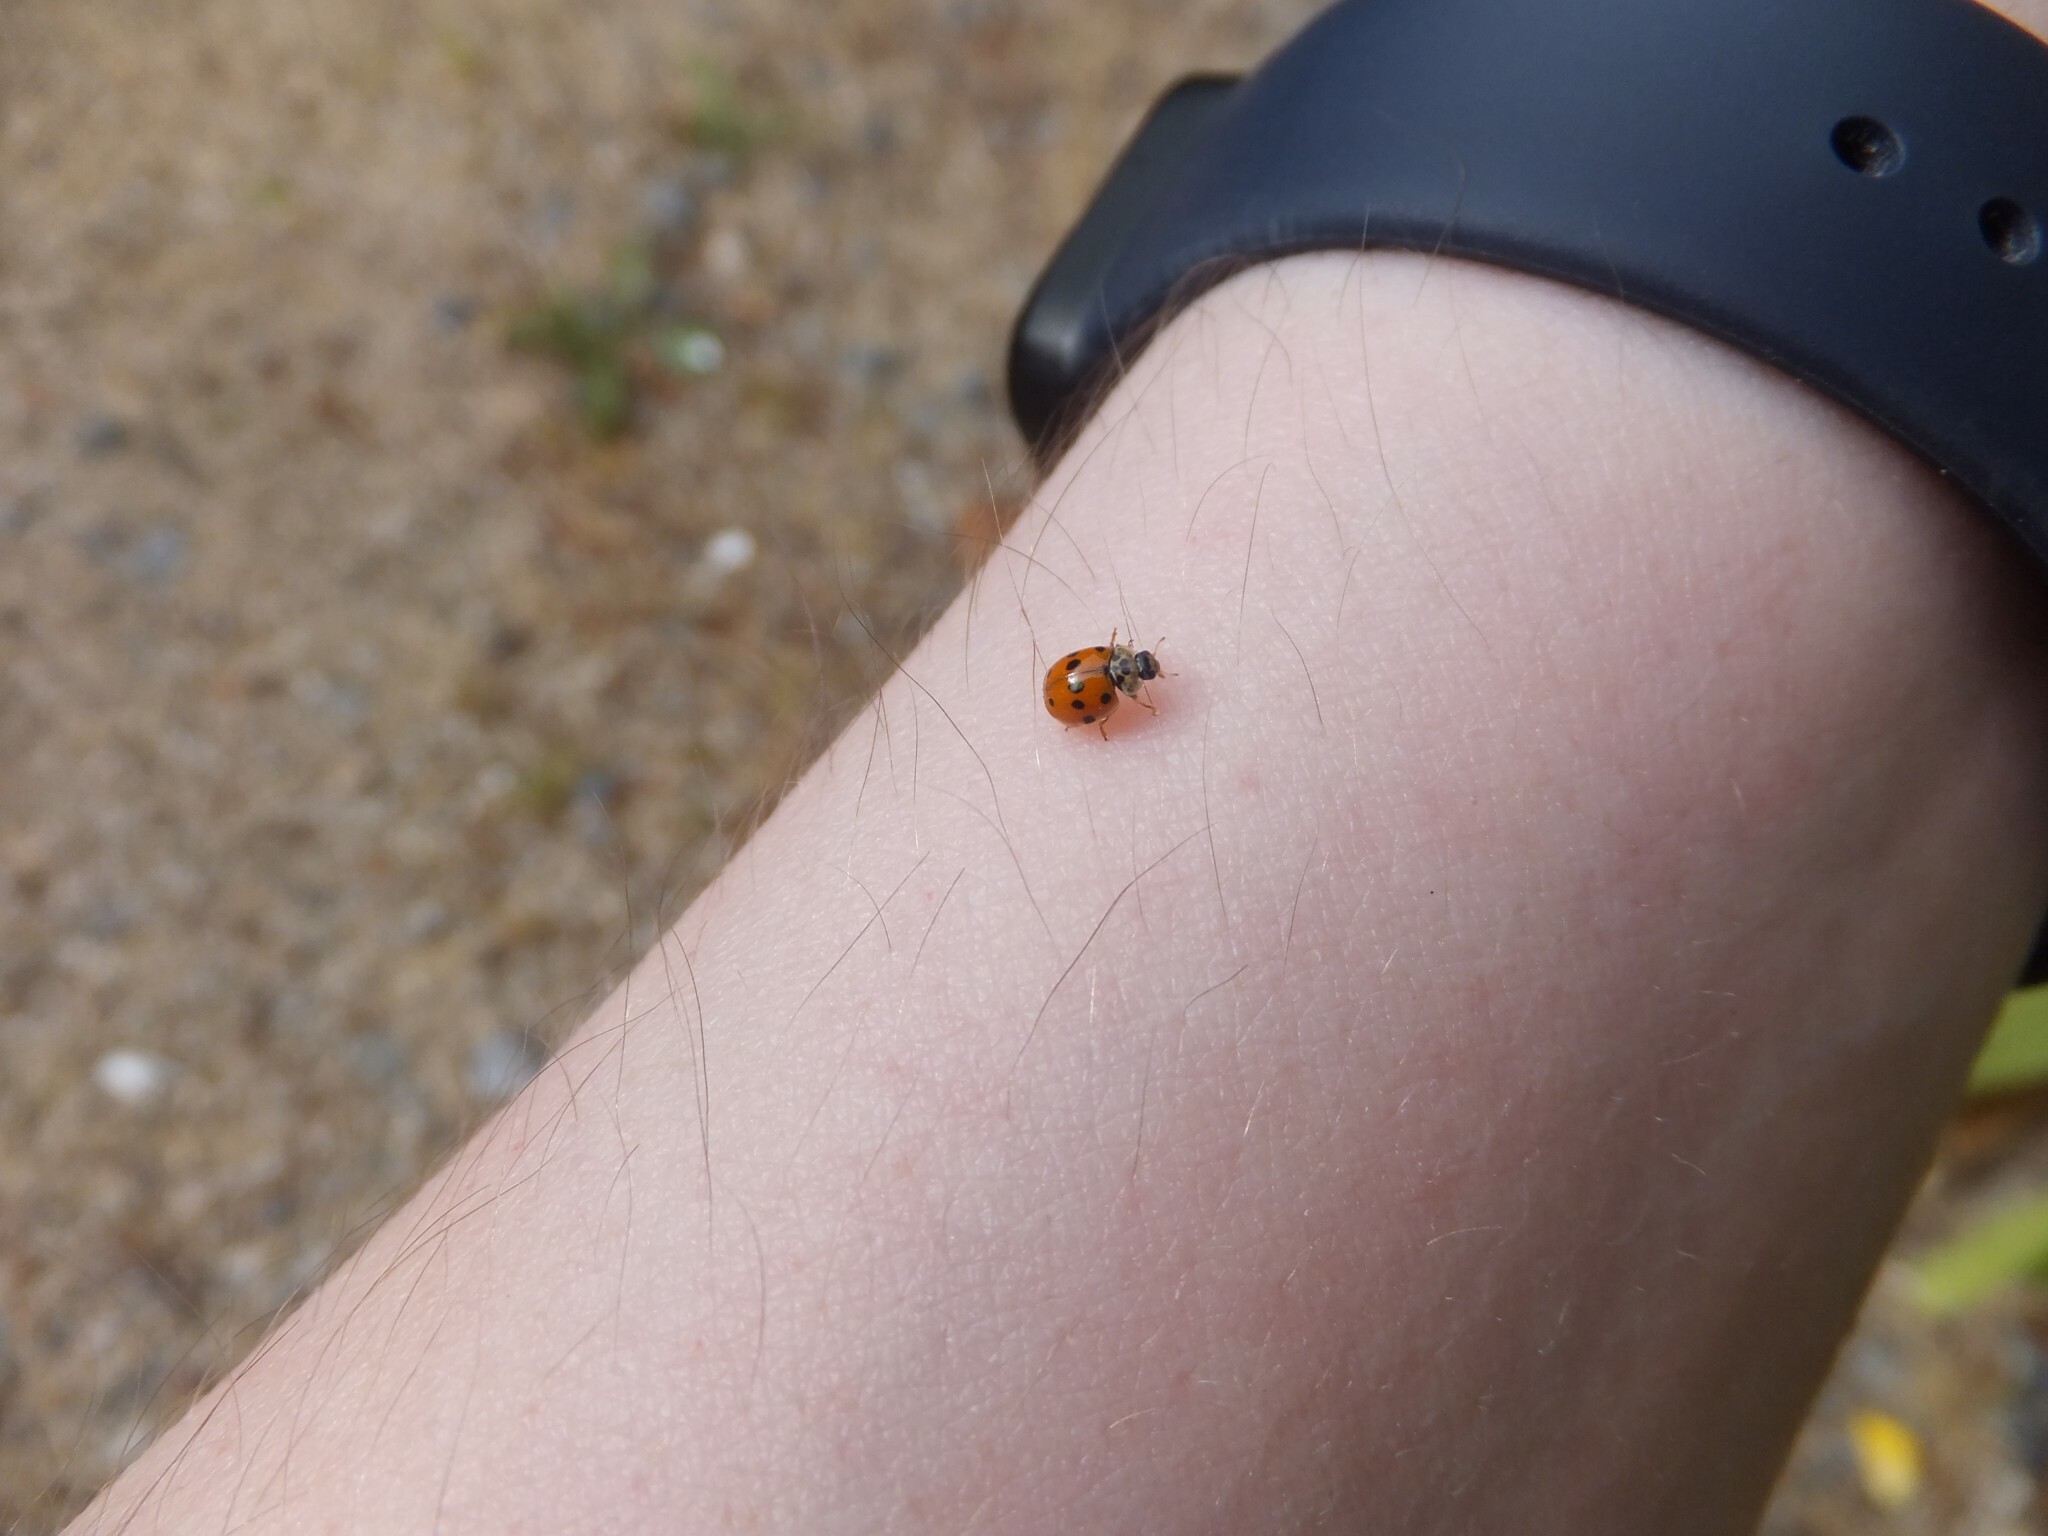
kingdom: Animalia
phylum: Arthropoda
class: Insecta
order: Coleoptera
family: Coccinellidae
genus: Adalia
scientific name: Adalia decempunctata
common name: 10-spot ladybird
